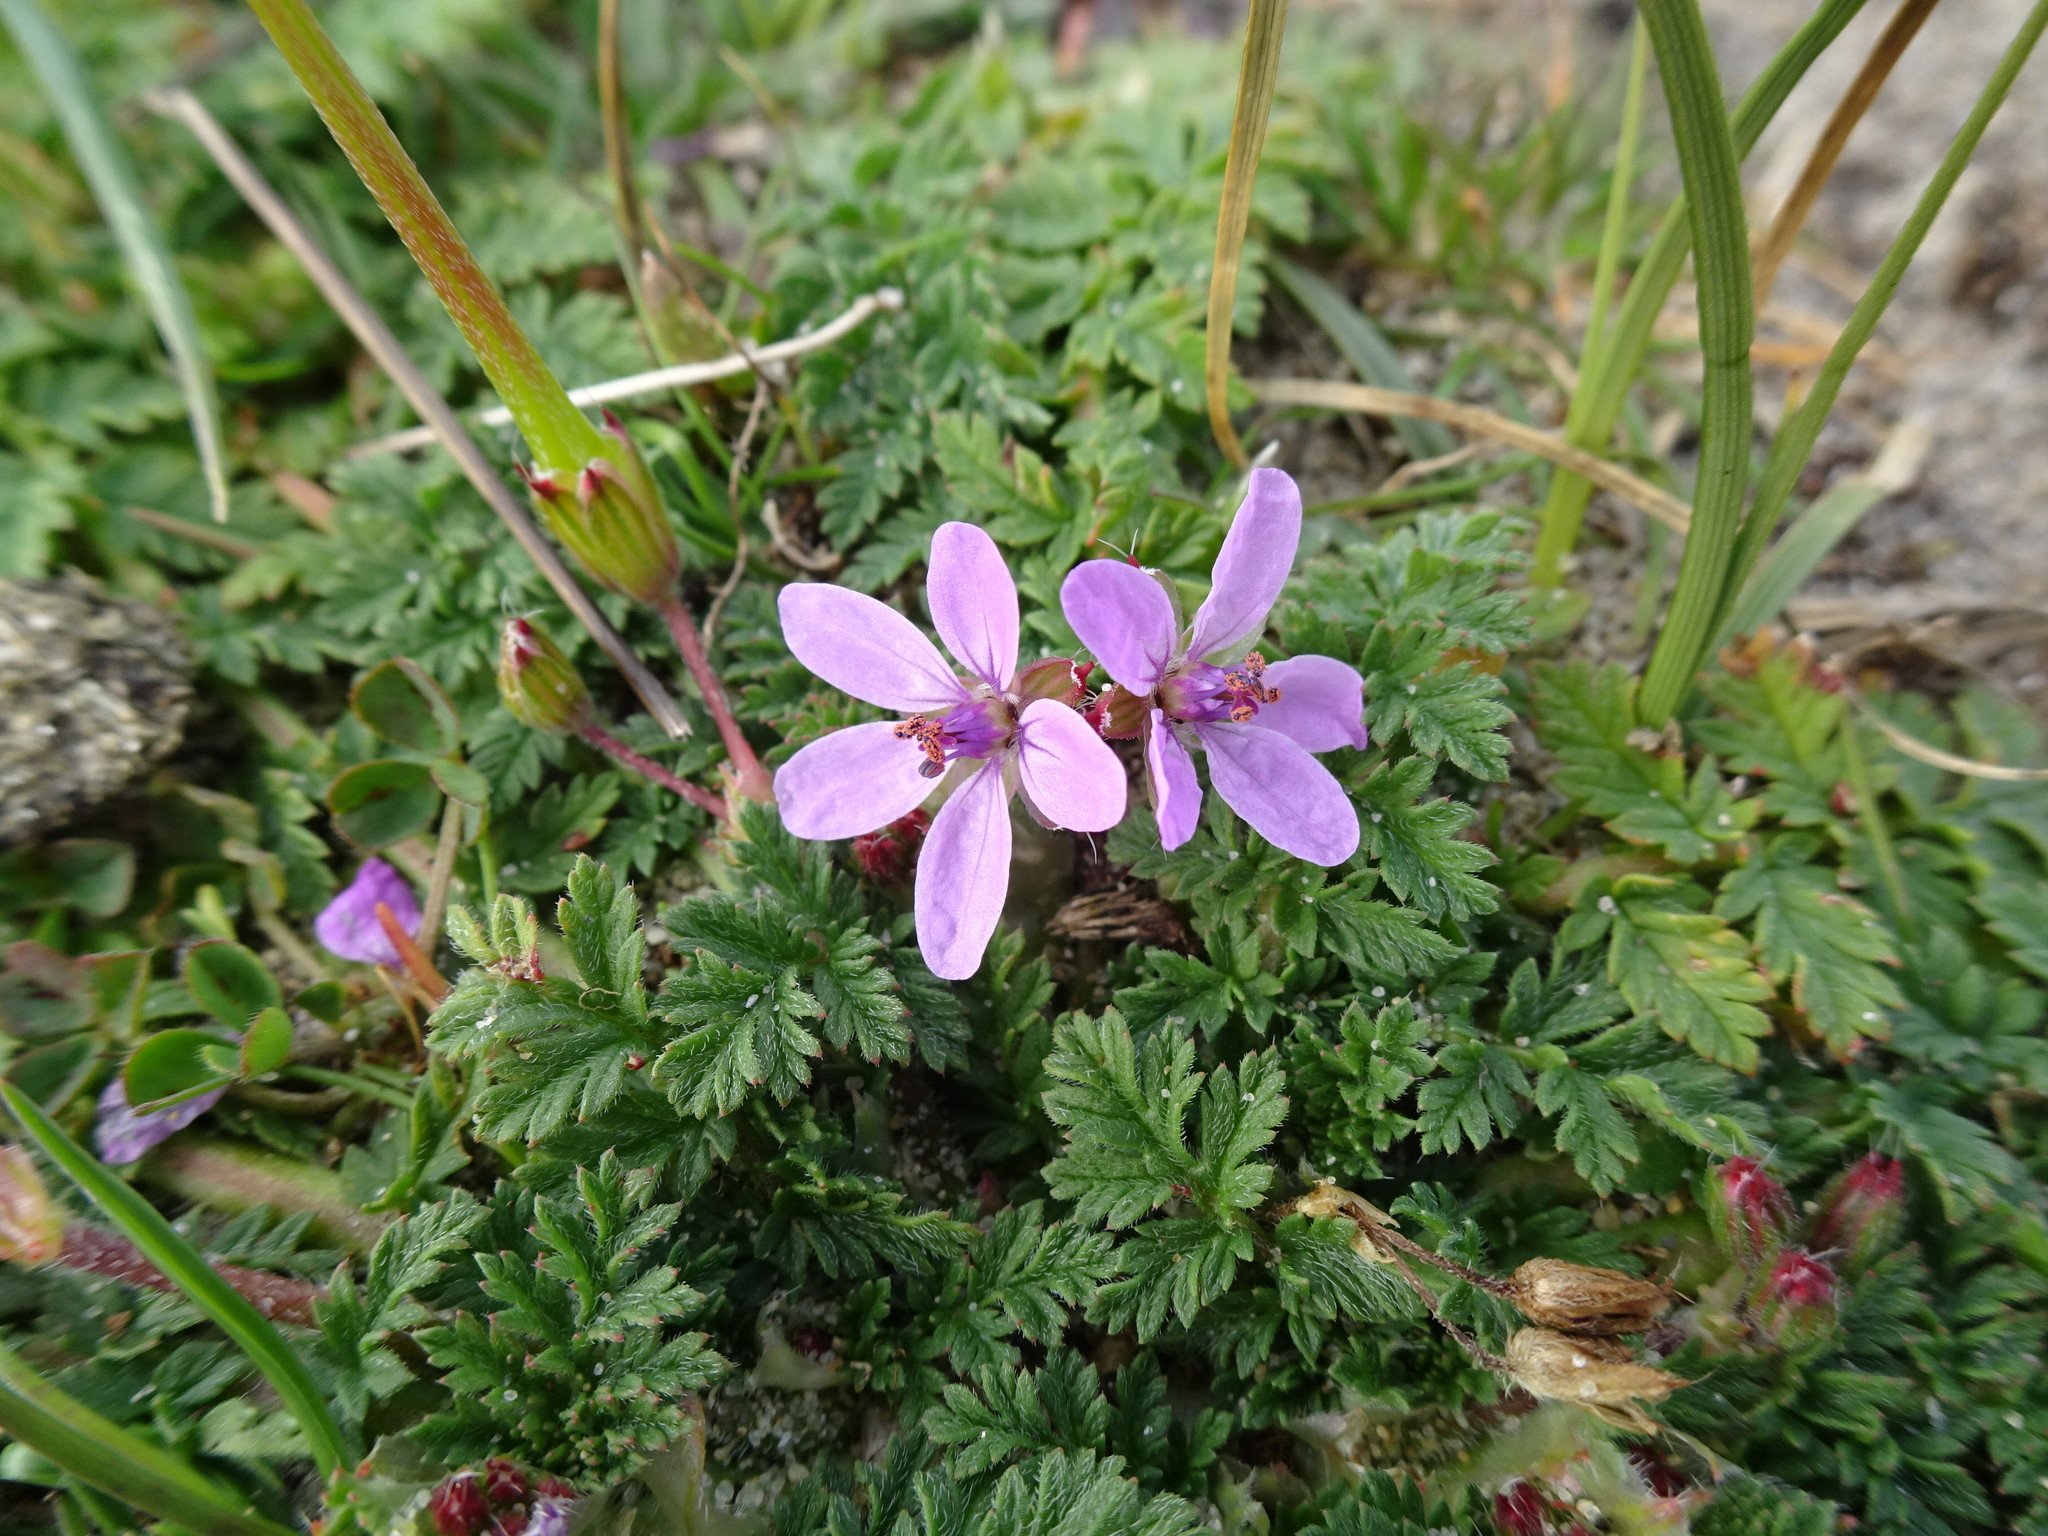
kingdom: Plantae
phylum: Tracheophyta
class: Magnoliopsida
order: Geraniales
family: Geraniaceae
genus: Erodium
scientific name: Erodium cicutarium
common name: Common stork's-bill
